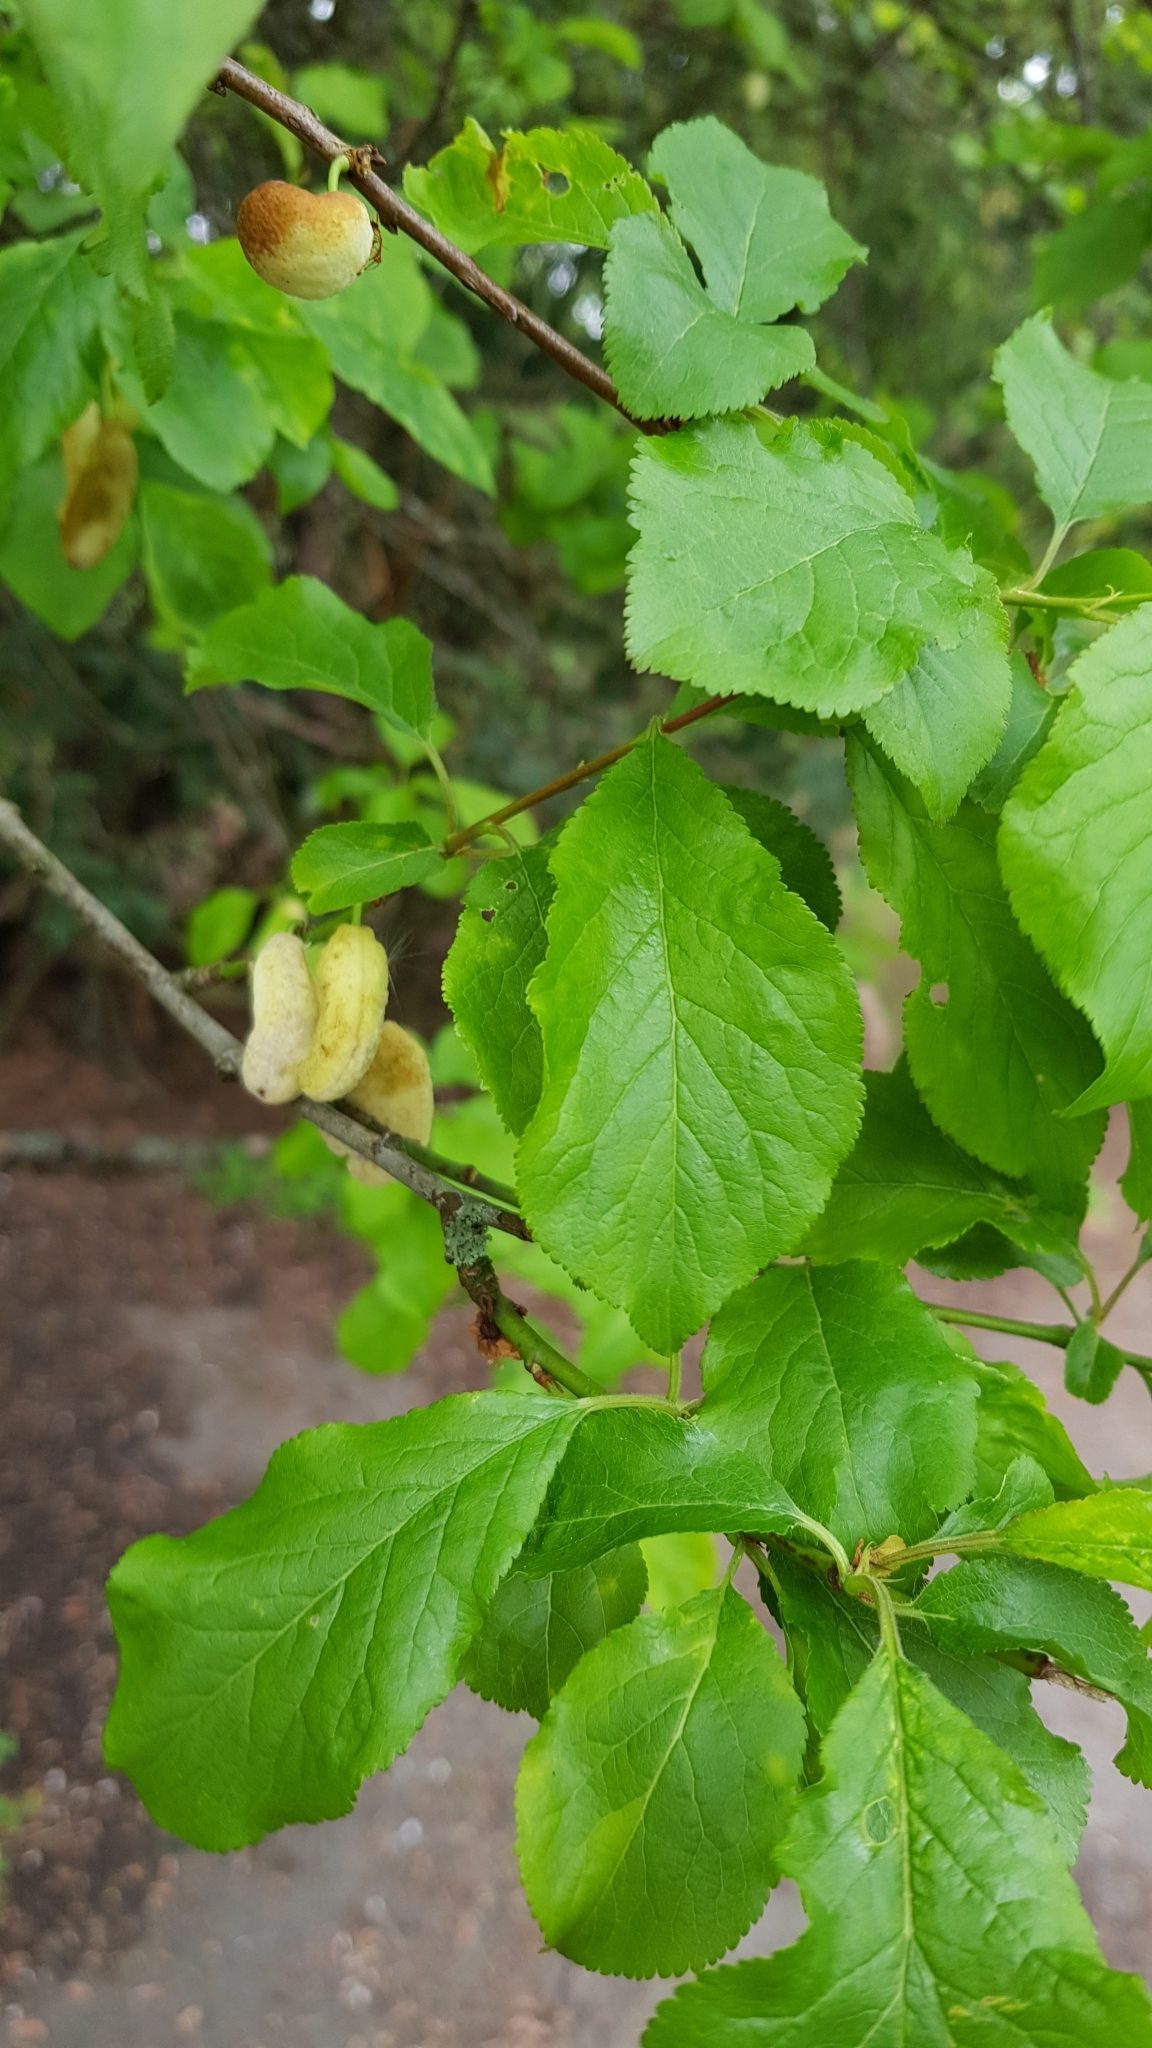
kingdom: Fungi
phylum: Ascomycota
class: Taphrinomycetes
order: Taphrinales
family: Taphrinaceae
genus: Taphrina
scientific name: Taphrina pruni
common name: Pocket plum
